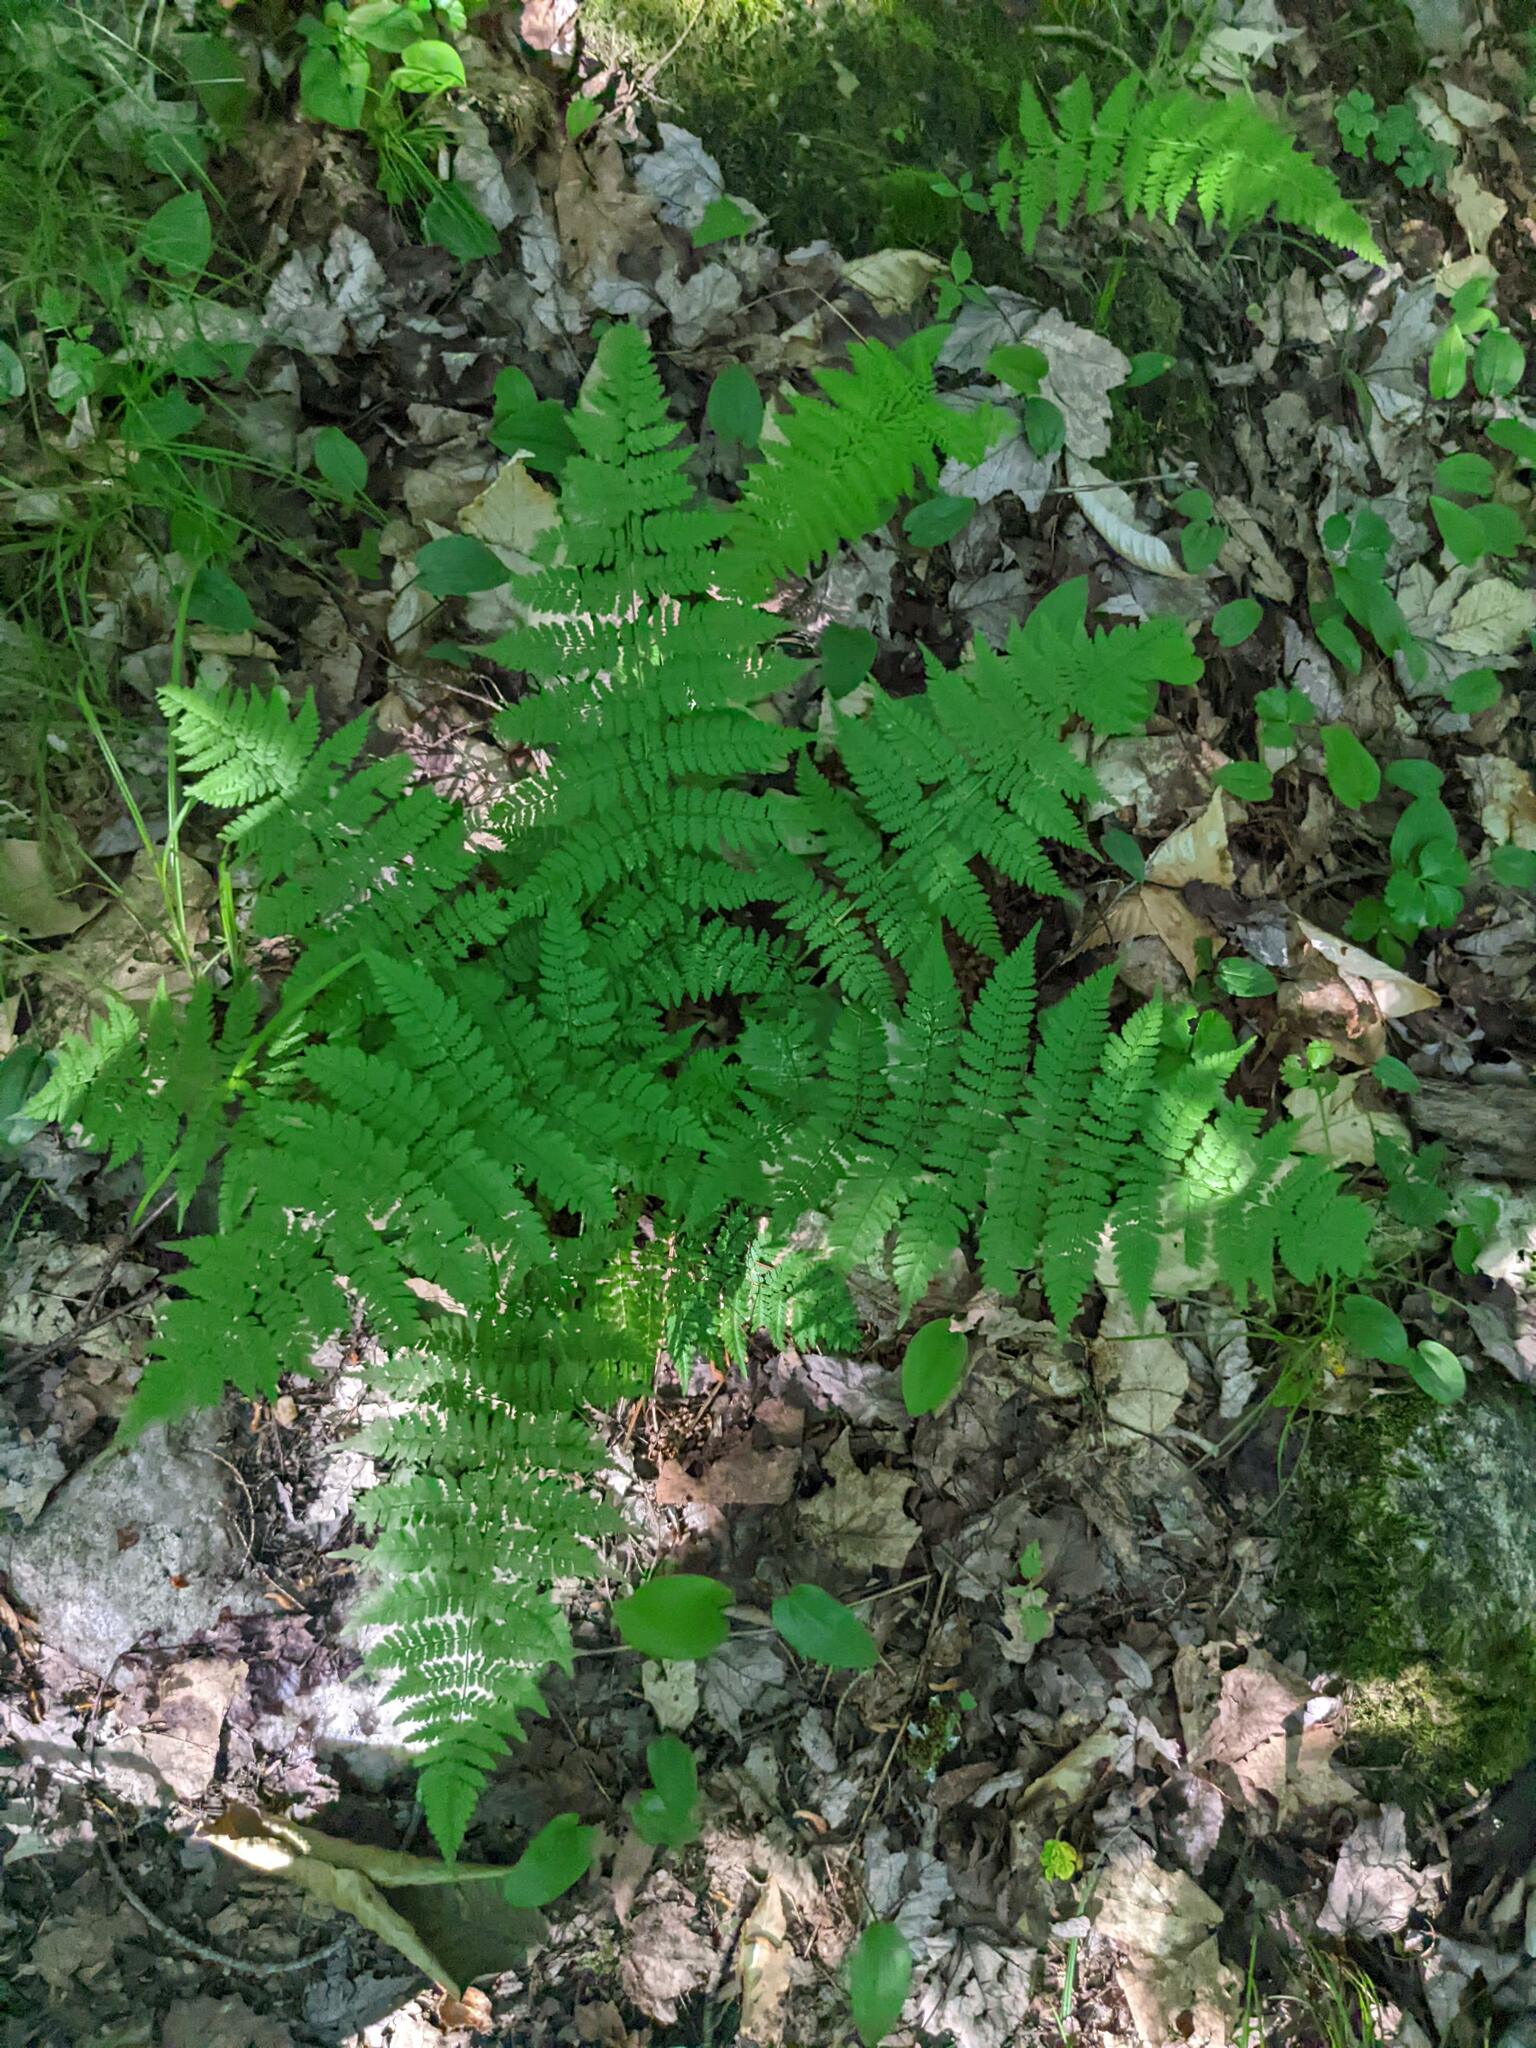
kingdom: Plantae
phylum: Tracheophyta
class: Polypodiopsida
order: Polypodiales
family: Dryopteridaceae
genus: Dryopteris
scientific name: Dryopteris intermedia
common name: Evergreen wood fern
